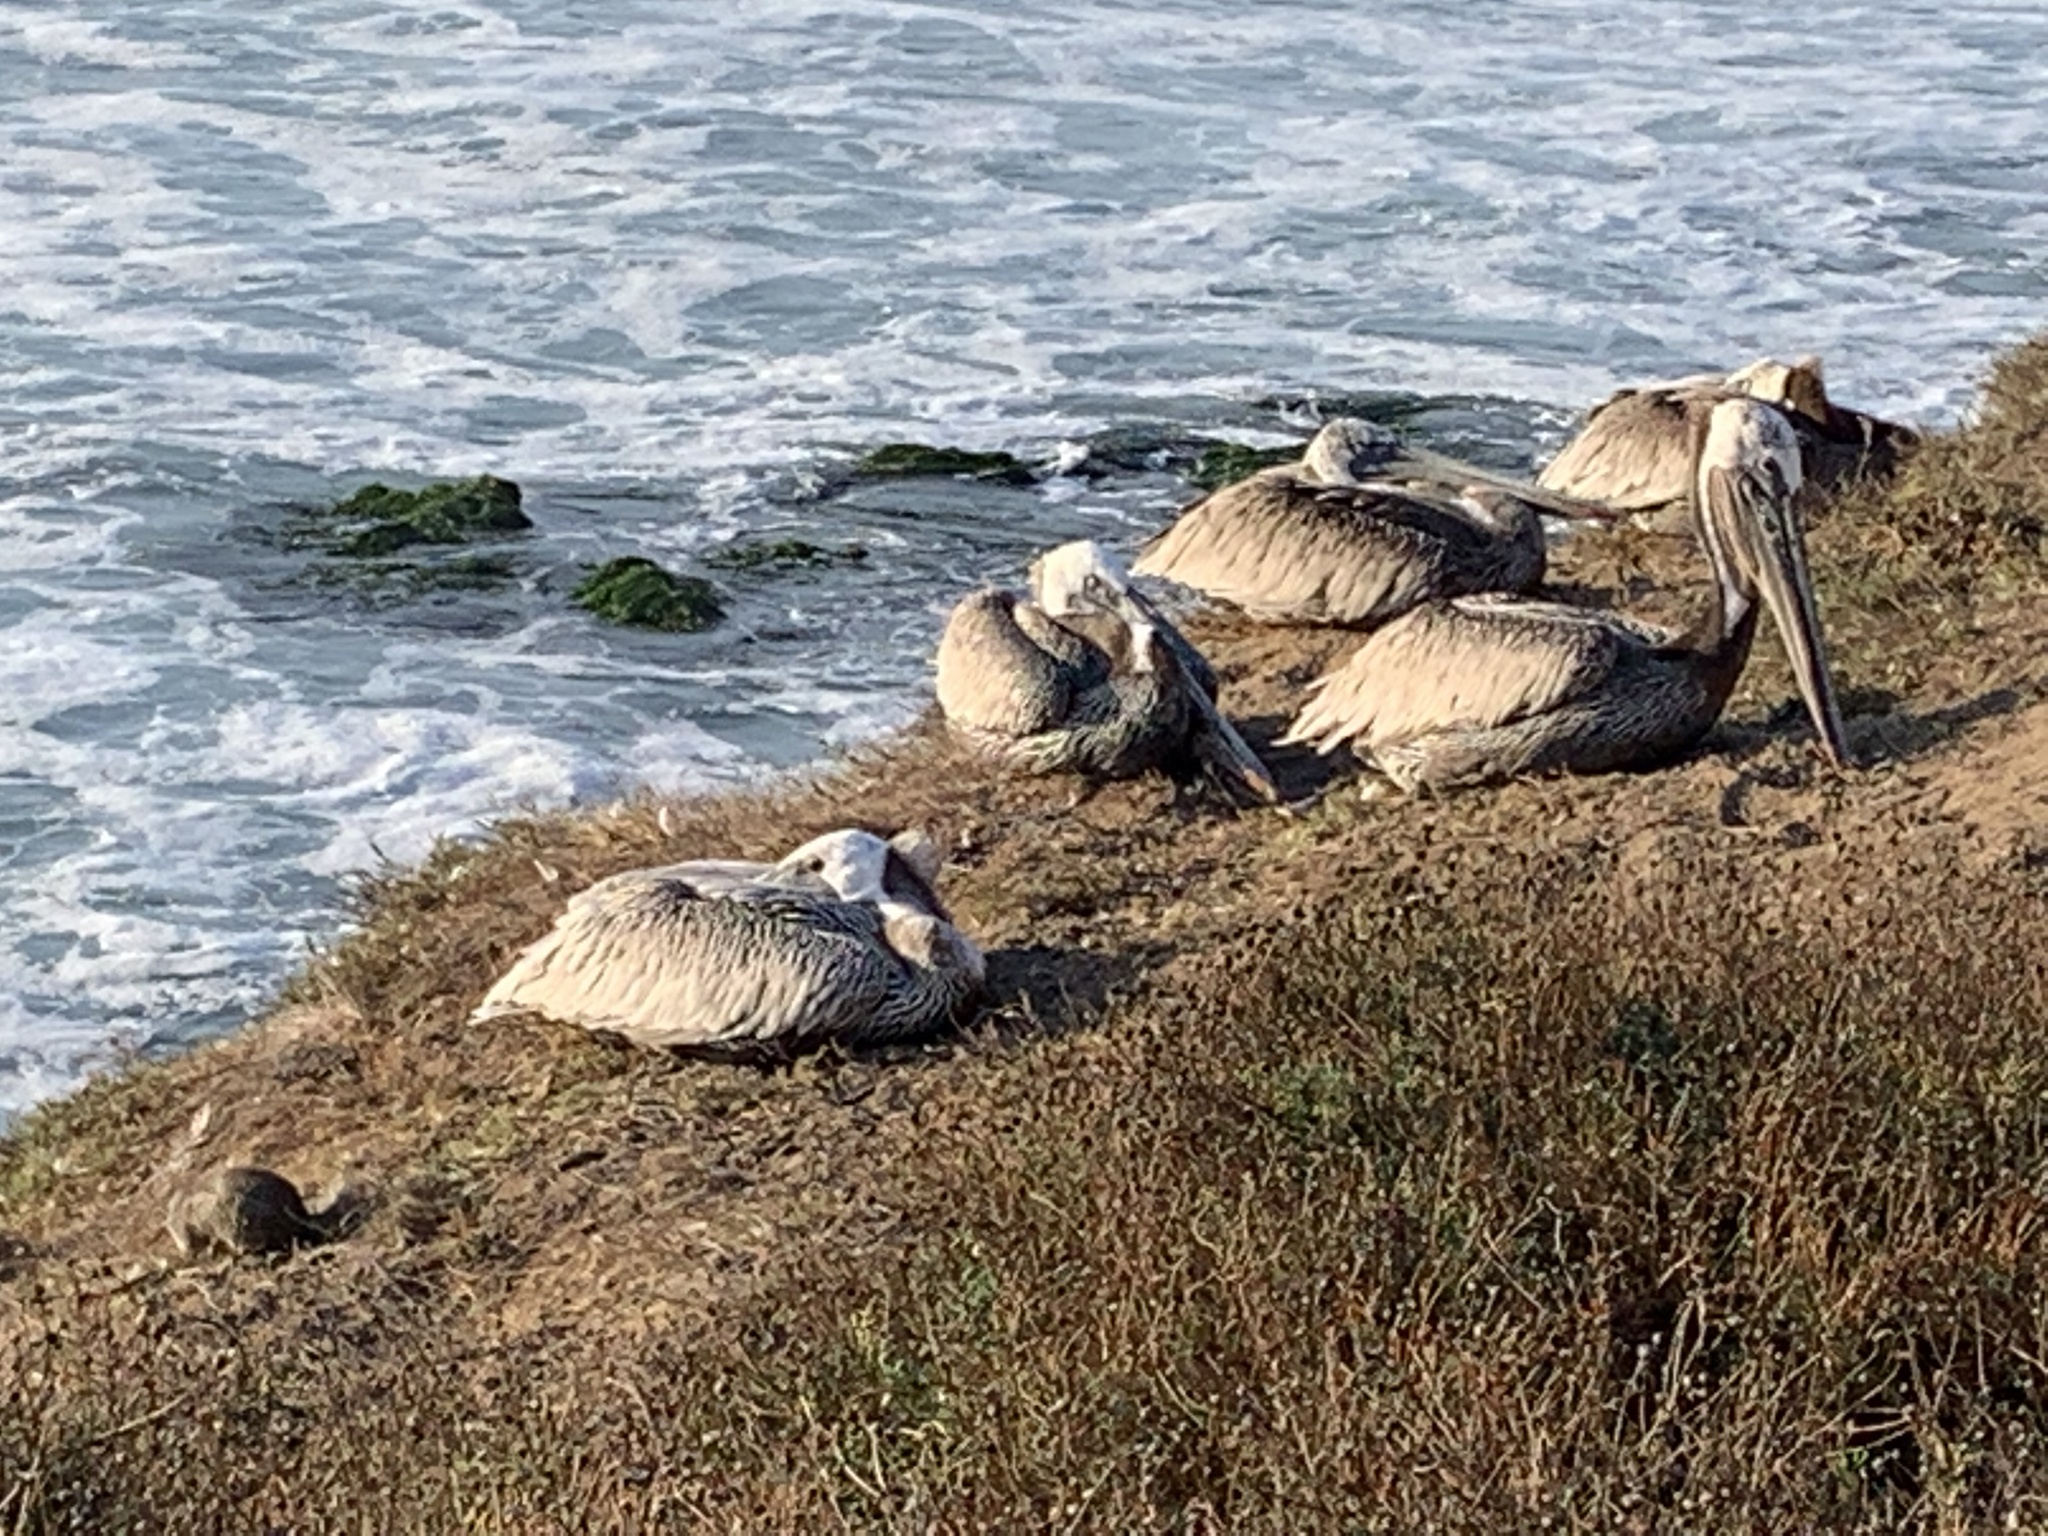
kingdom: Animalia
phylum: Chordata
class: Aves
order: Pelecaniformes
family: Pelecanidae
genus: Pelecanus
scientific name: Pelecanus occidentalis
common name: Brown pelican
